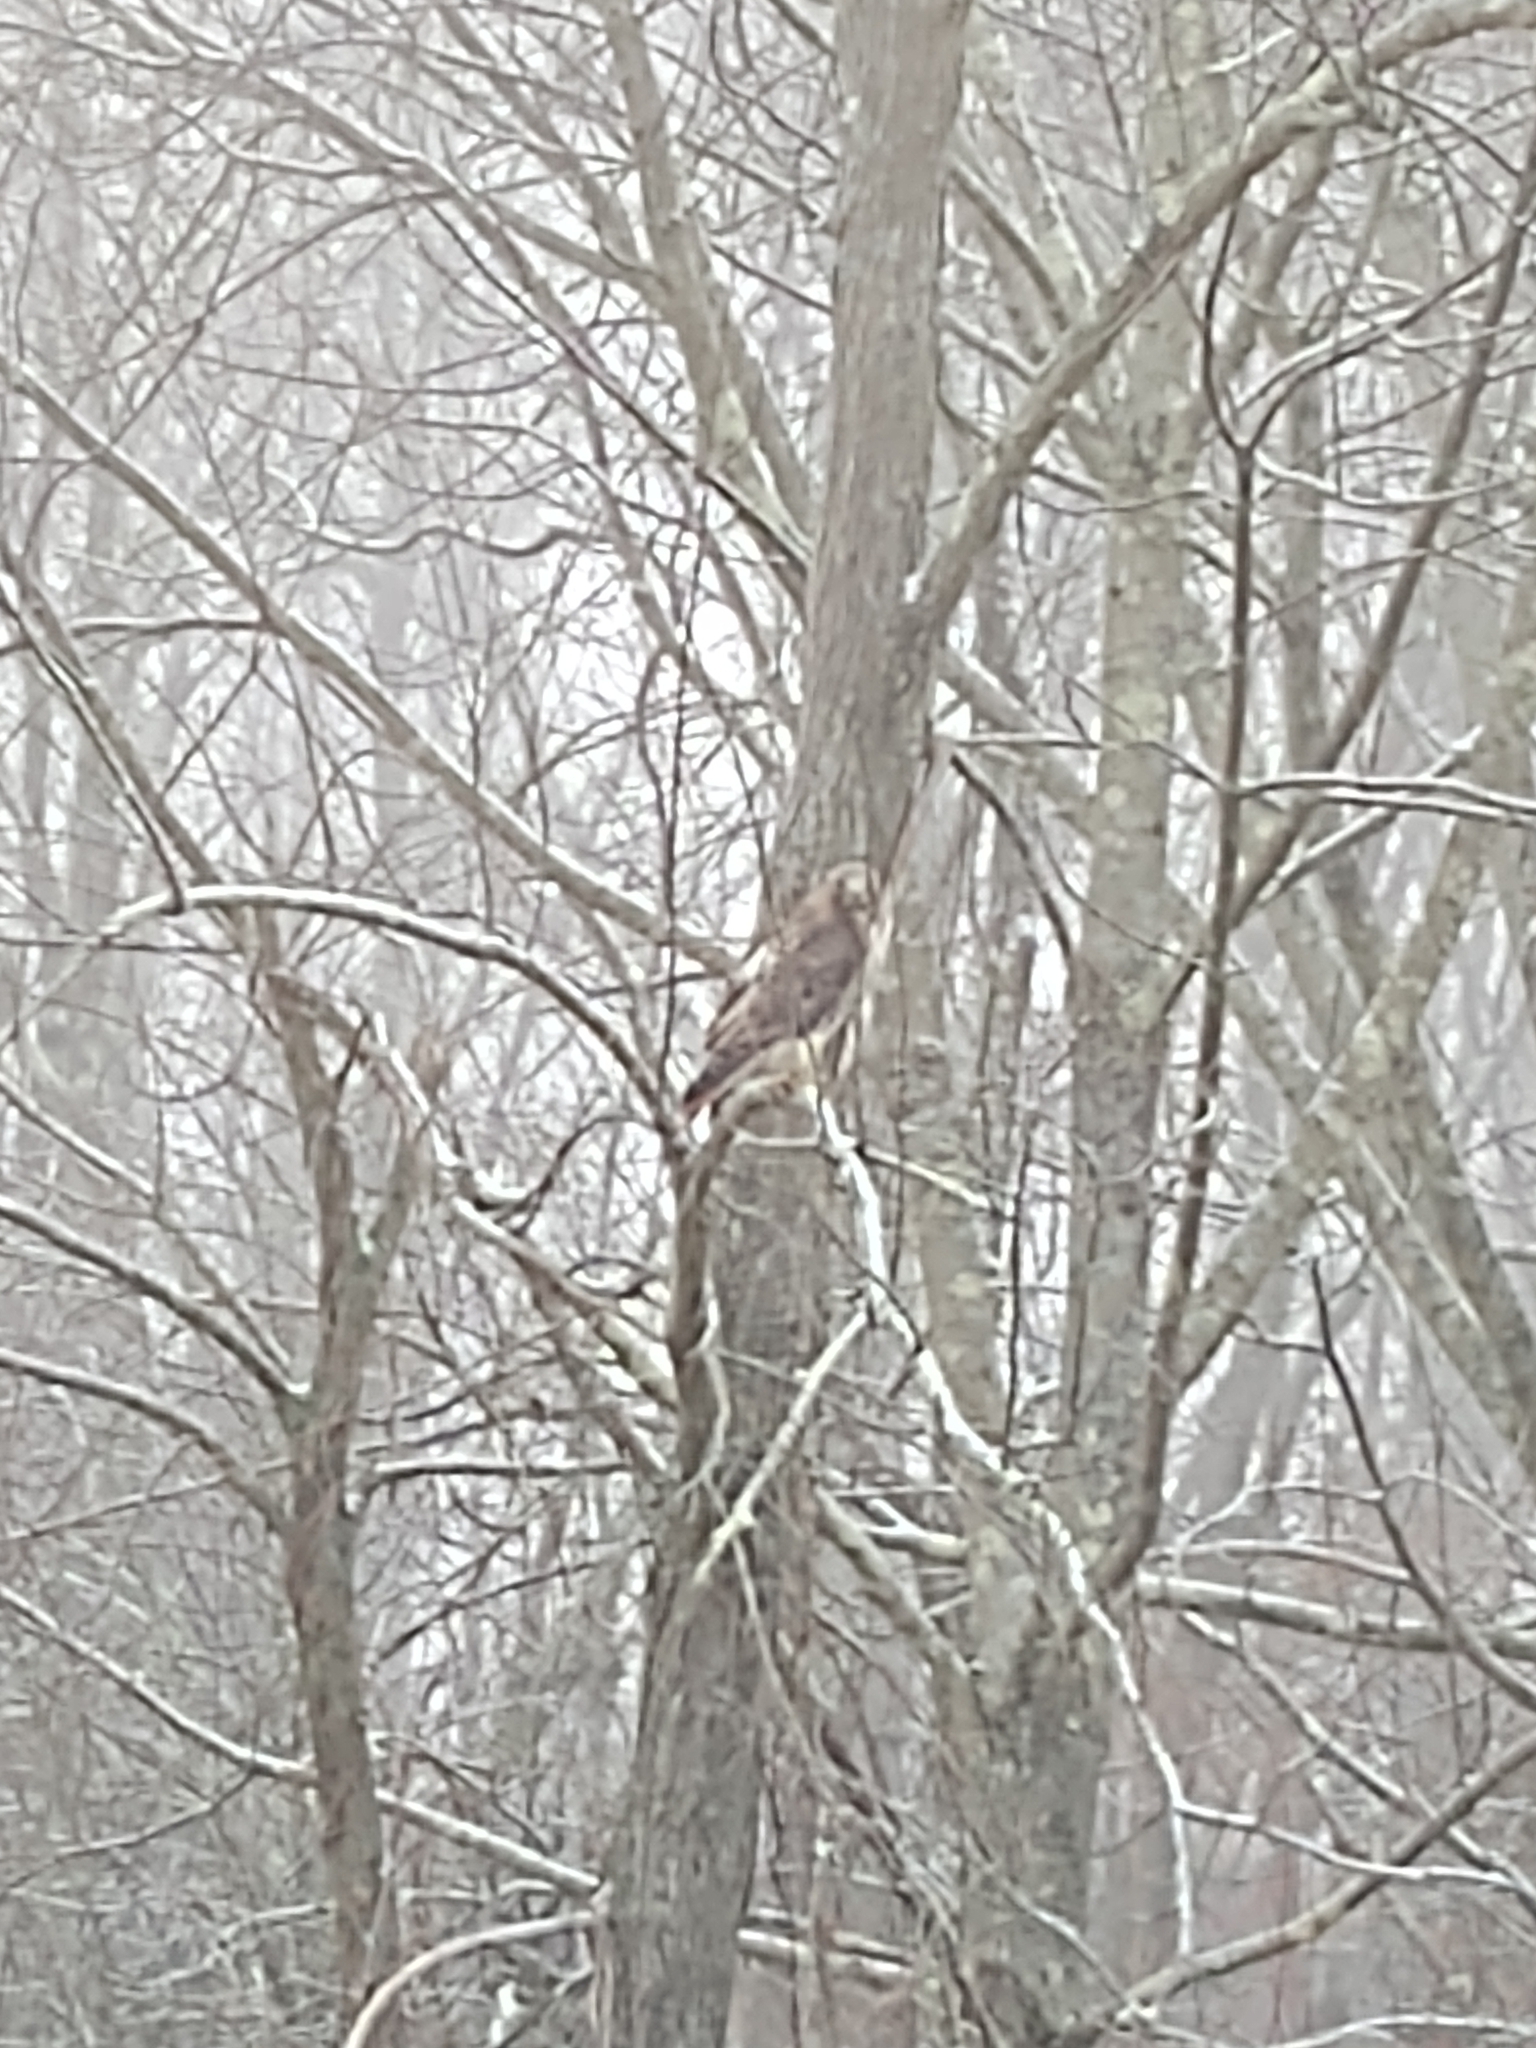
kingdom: Animalia
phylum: Chordata
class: Aves
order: Accipitriformes
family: Accipitridae
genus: Buteo
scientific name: Buteo jamaicensis
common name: Red-tailed hawk
